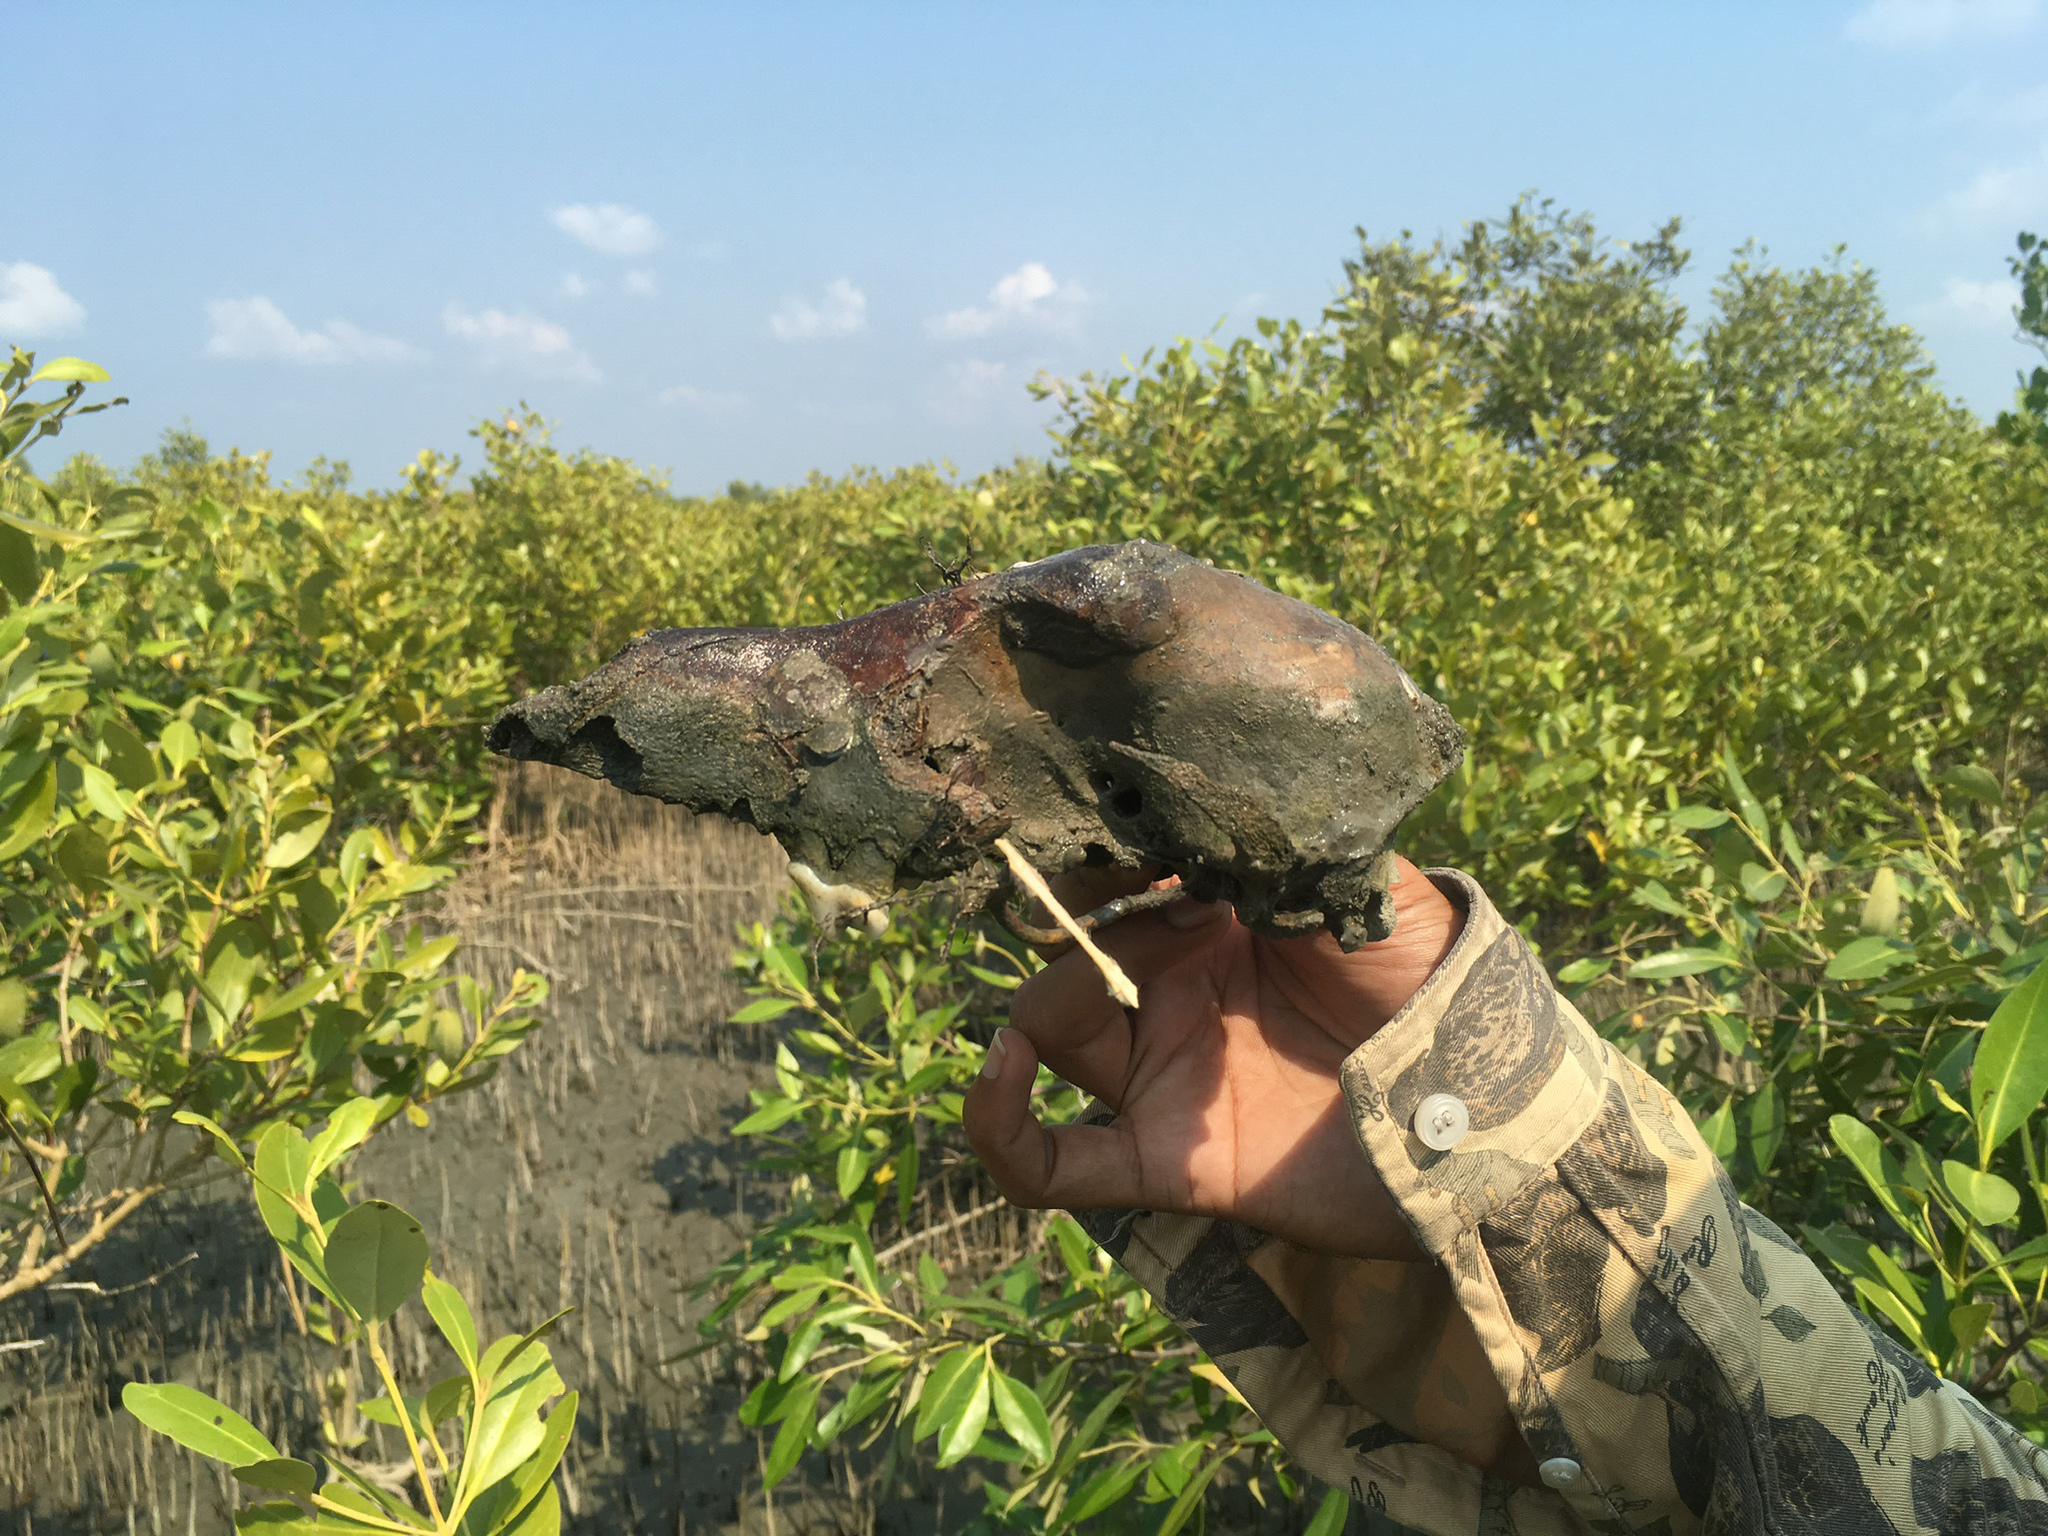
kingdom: Animalia
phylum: Chordata
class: Mammalia
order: Carnivora
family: Canidae
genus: Canis
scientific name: Canis aureus
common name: Golden jackal
